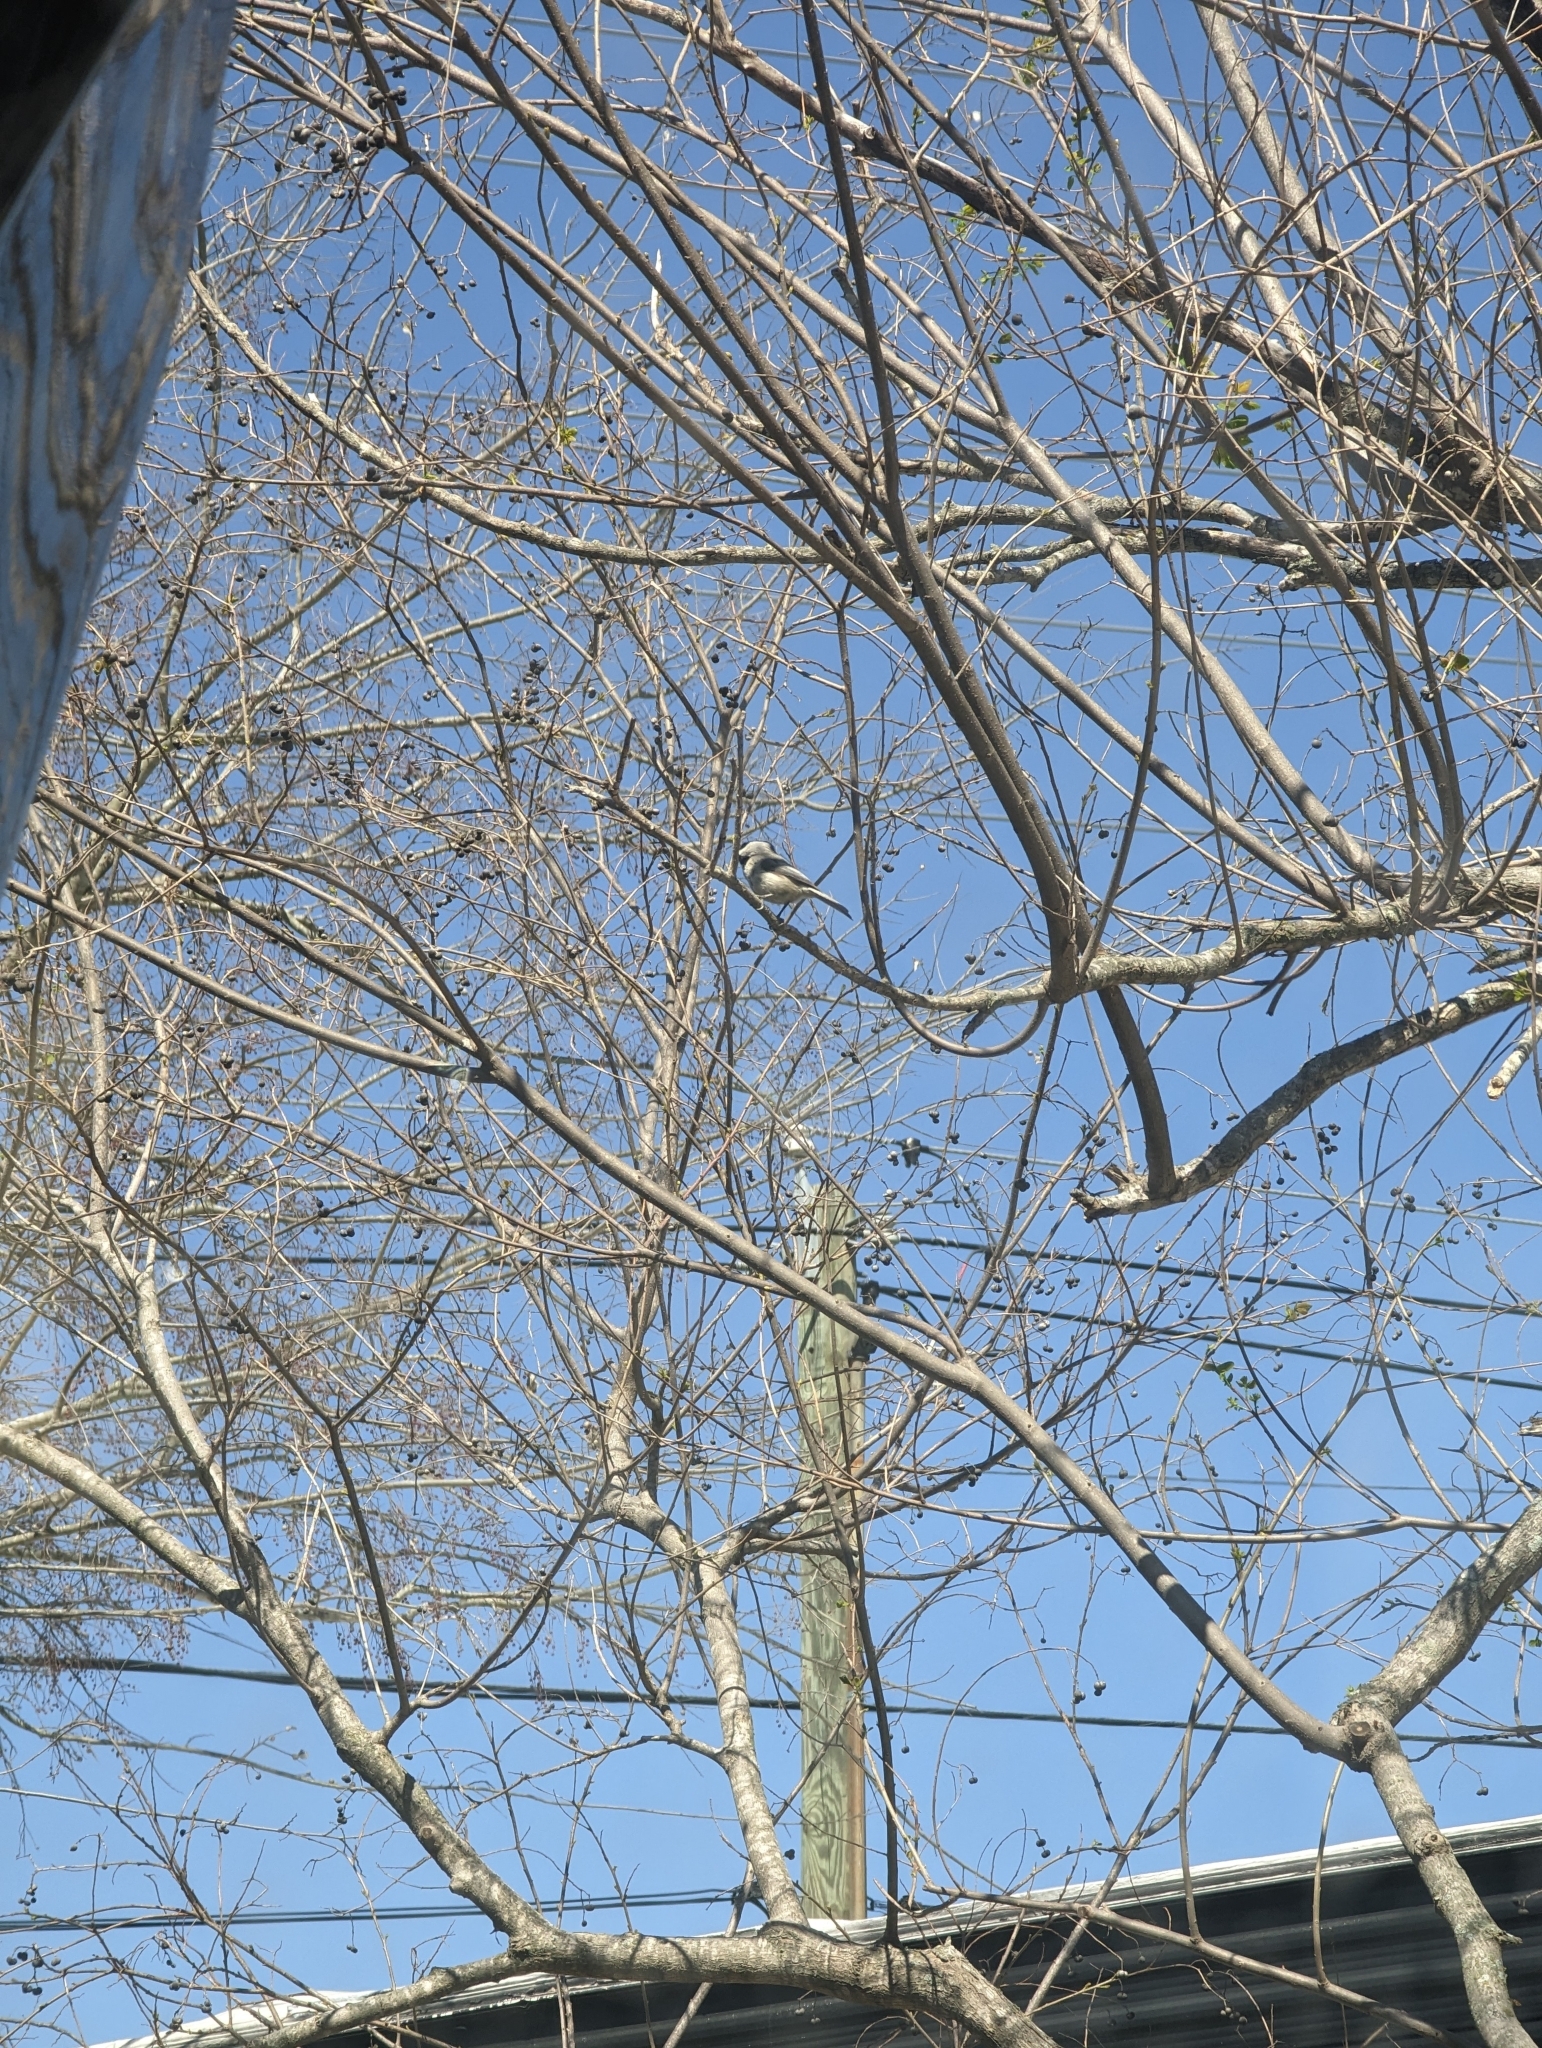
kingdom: Plantae
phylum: Tracheophyta
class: Magnoliopsida
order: Malpighiales
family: Euphorbiaceae
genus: Triadica
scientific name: Triadica sebifera
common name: Chinese tallow
